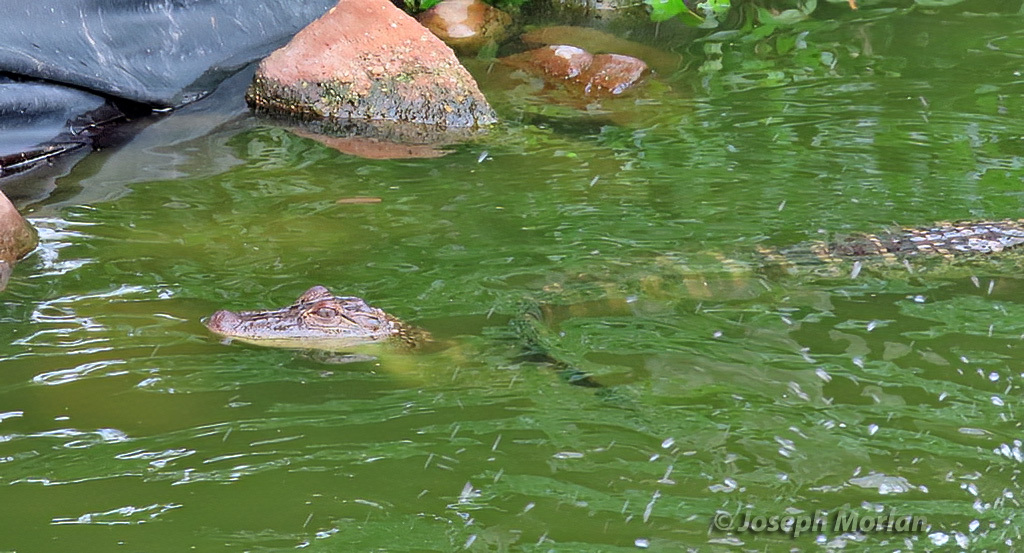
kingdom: Animalia
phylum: Chordata
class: Crocodylia
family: Alligatoridae
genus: Alligator
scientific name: Alligator mississippiensis
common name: American alligator
